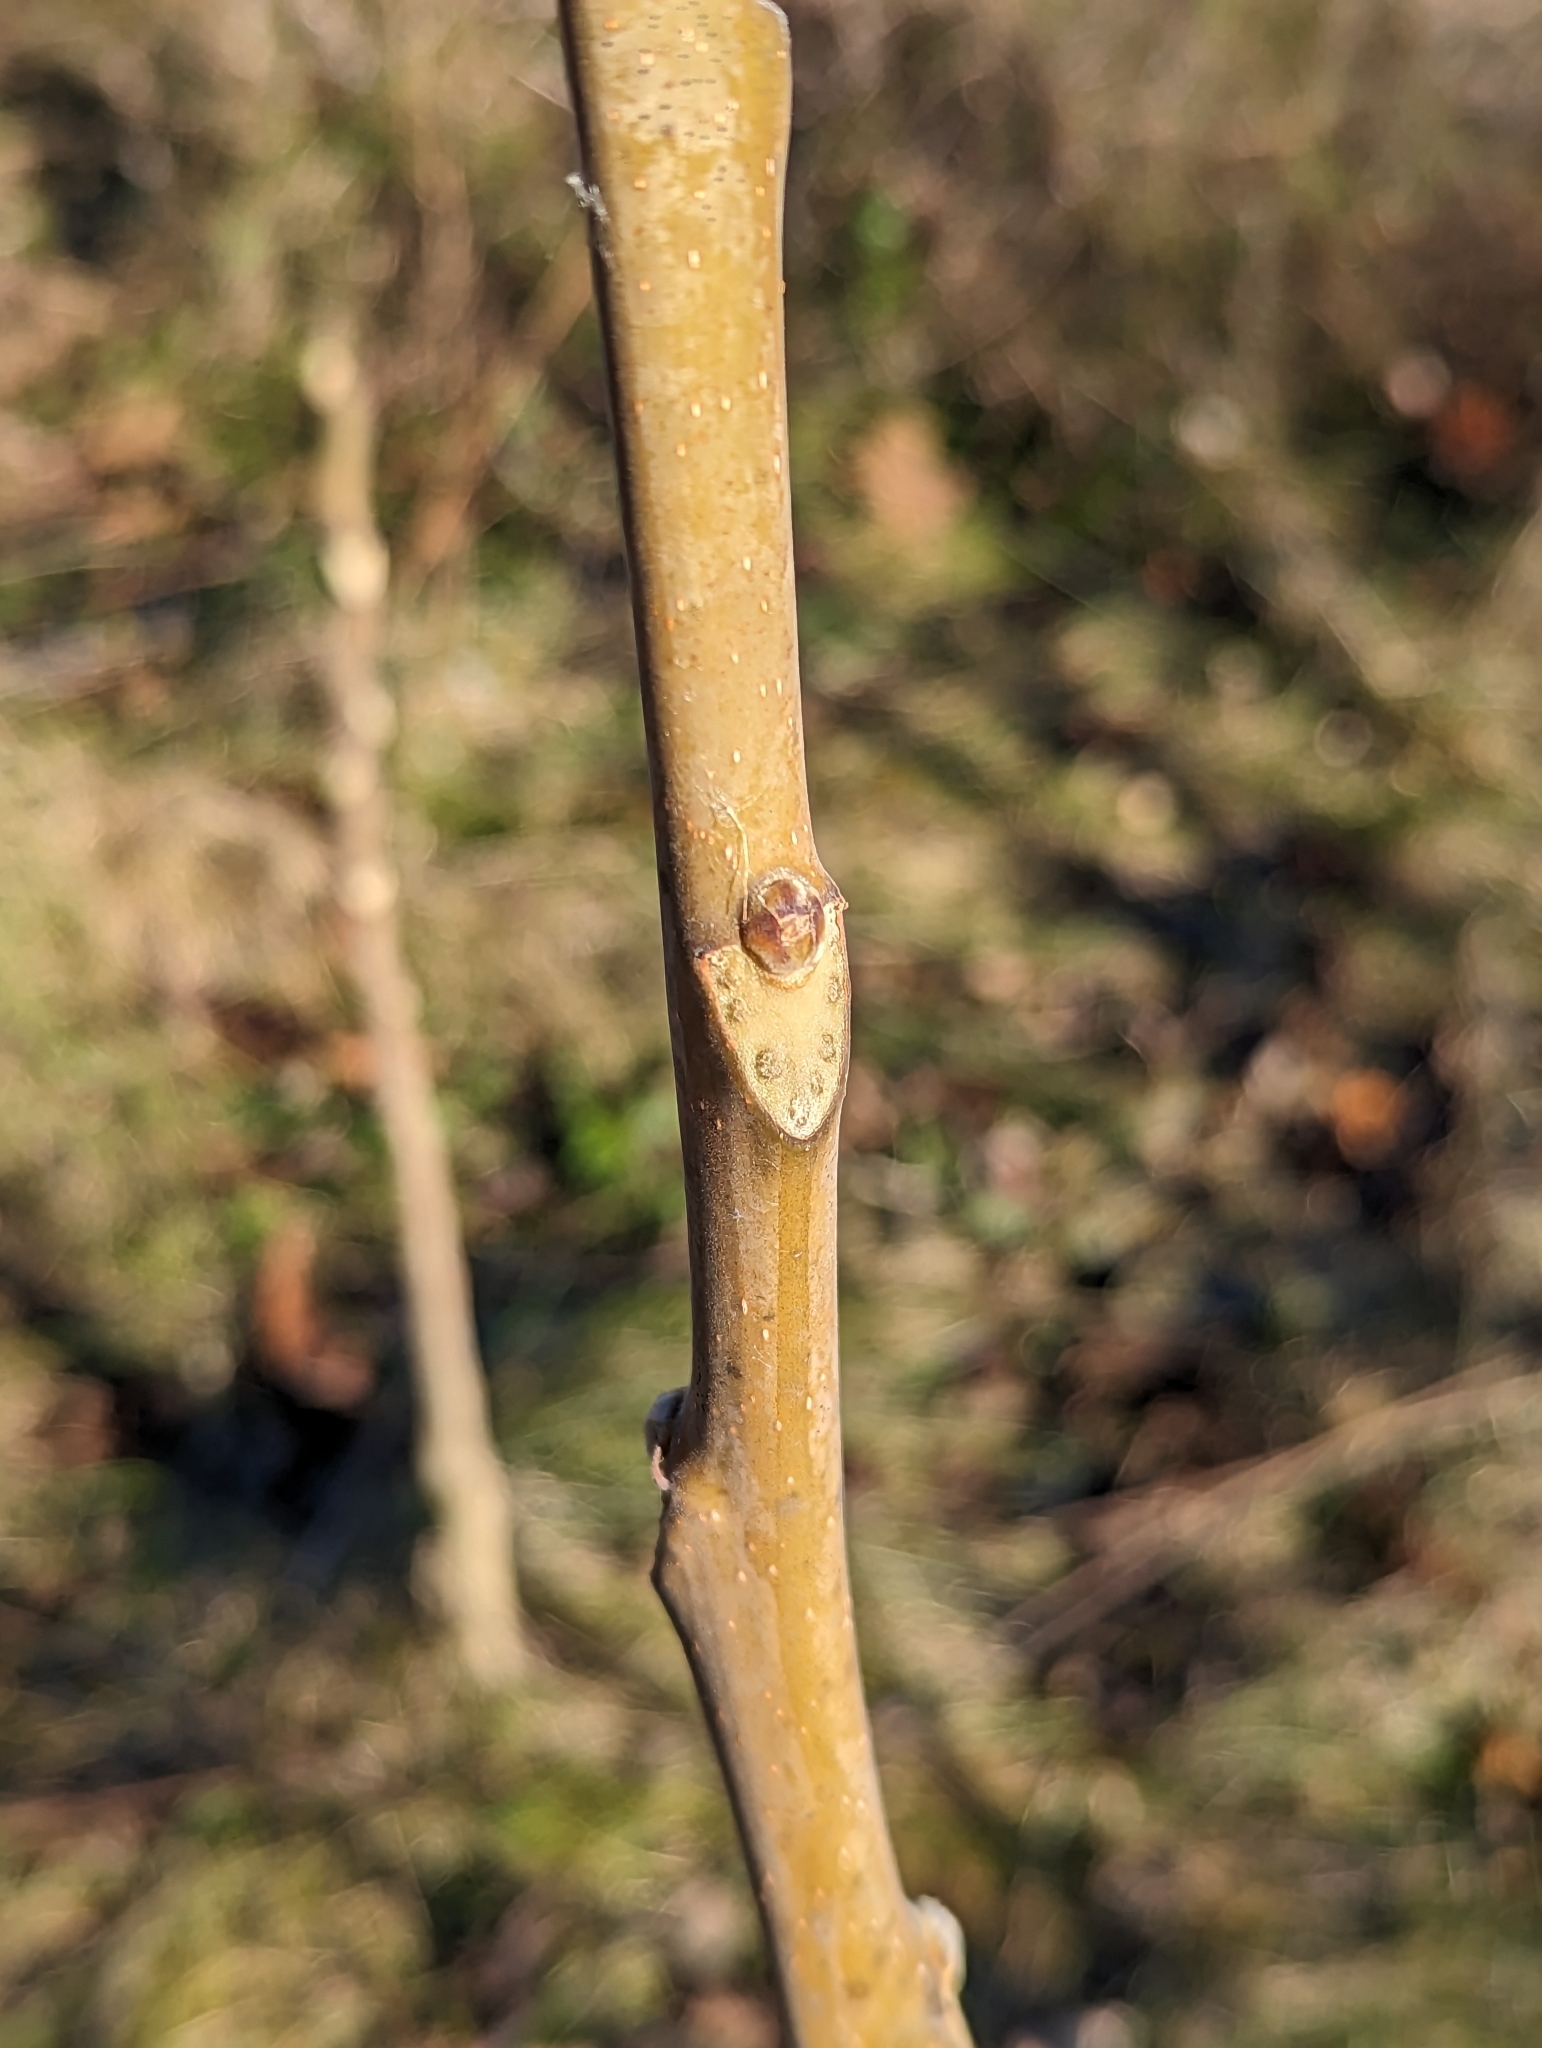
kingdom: Plantae
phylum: Tracheophyta
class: Magnoliopsida
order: Sapindales
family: Simaroubaceae
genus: Ailanthus
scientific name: Ailanthus altissima
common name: Tree-of-heaven
